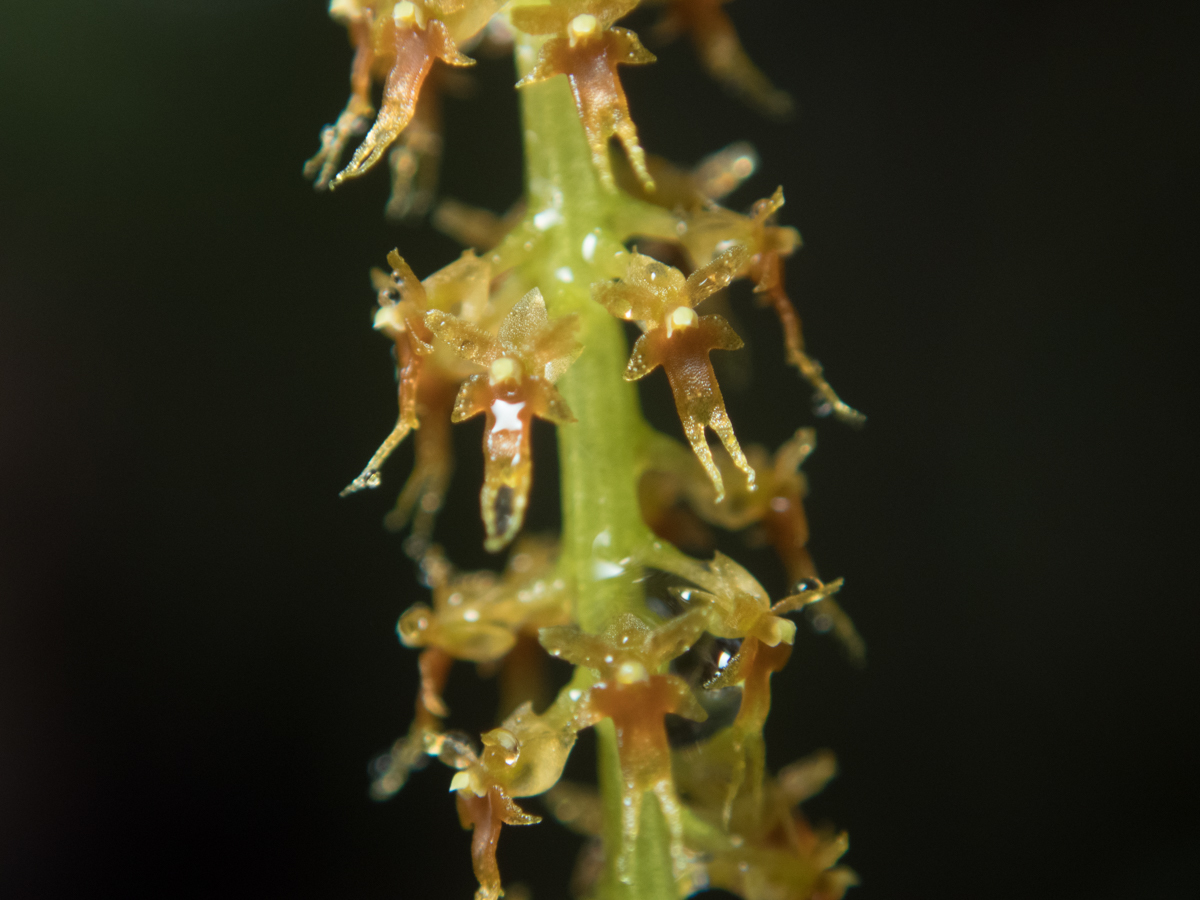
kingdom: Plantae
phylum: Tracheophyta
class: Liliopsida
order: Asparagales
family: Orchidaceae
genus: Oberonia
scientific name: Oberonia falcata
